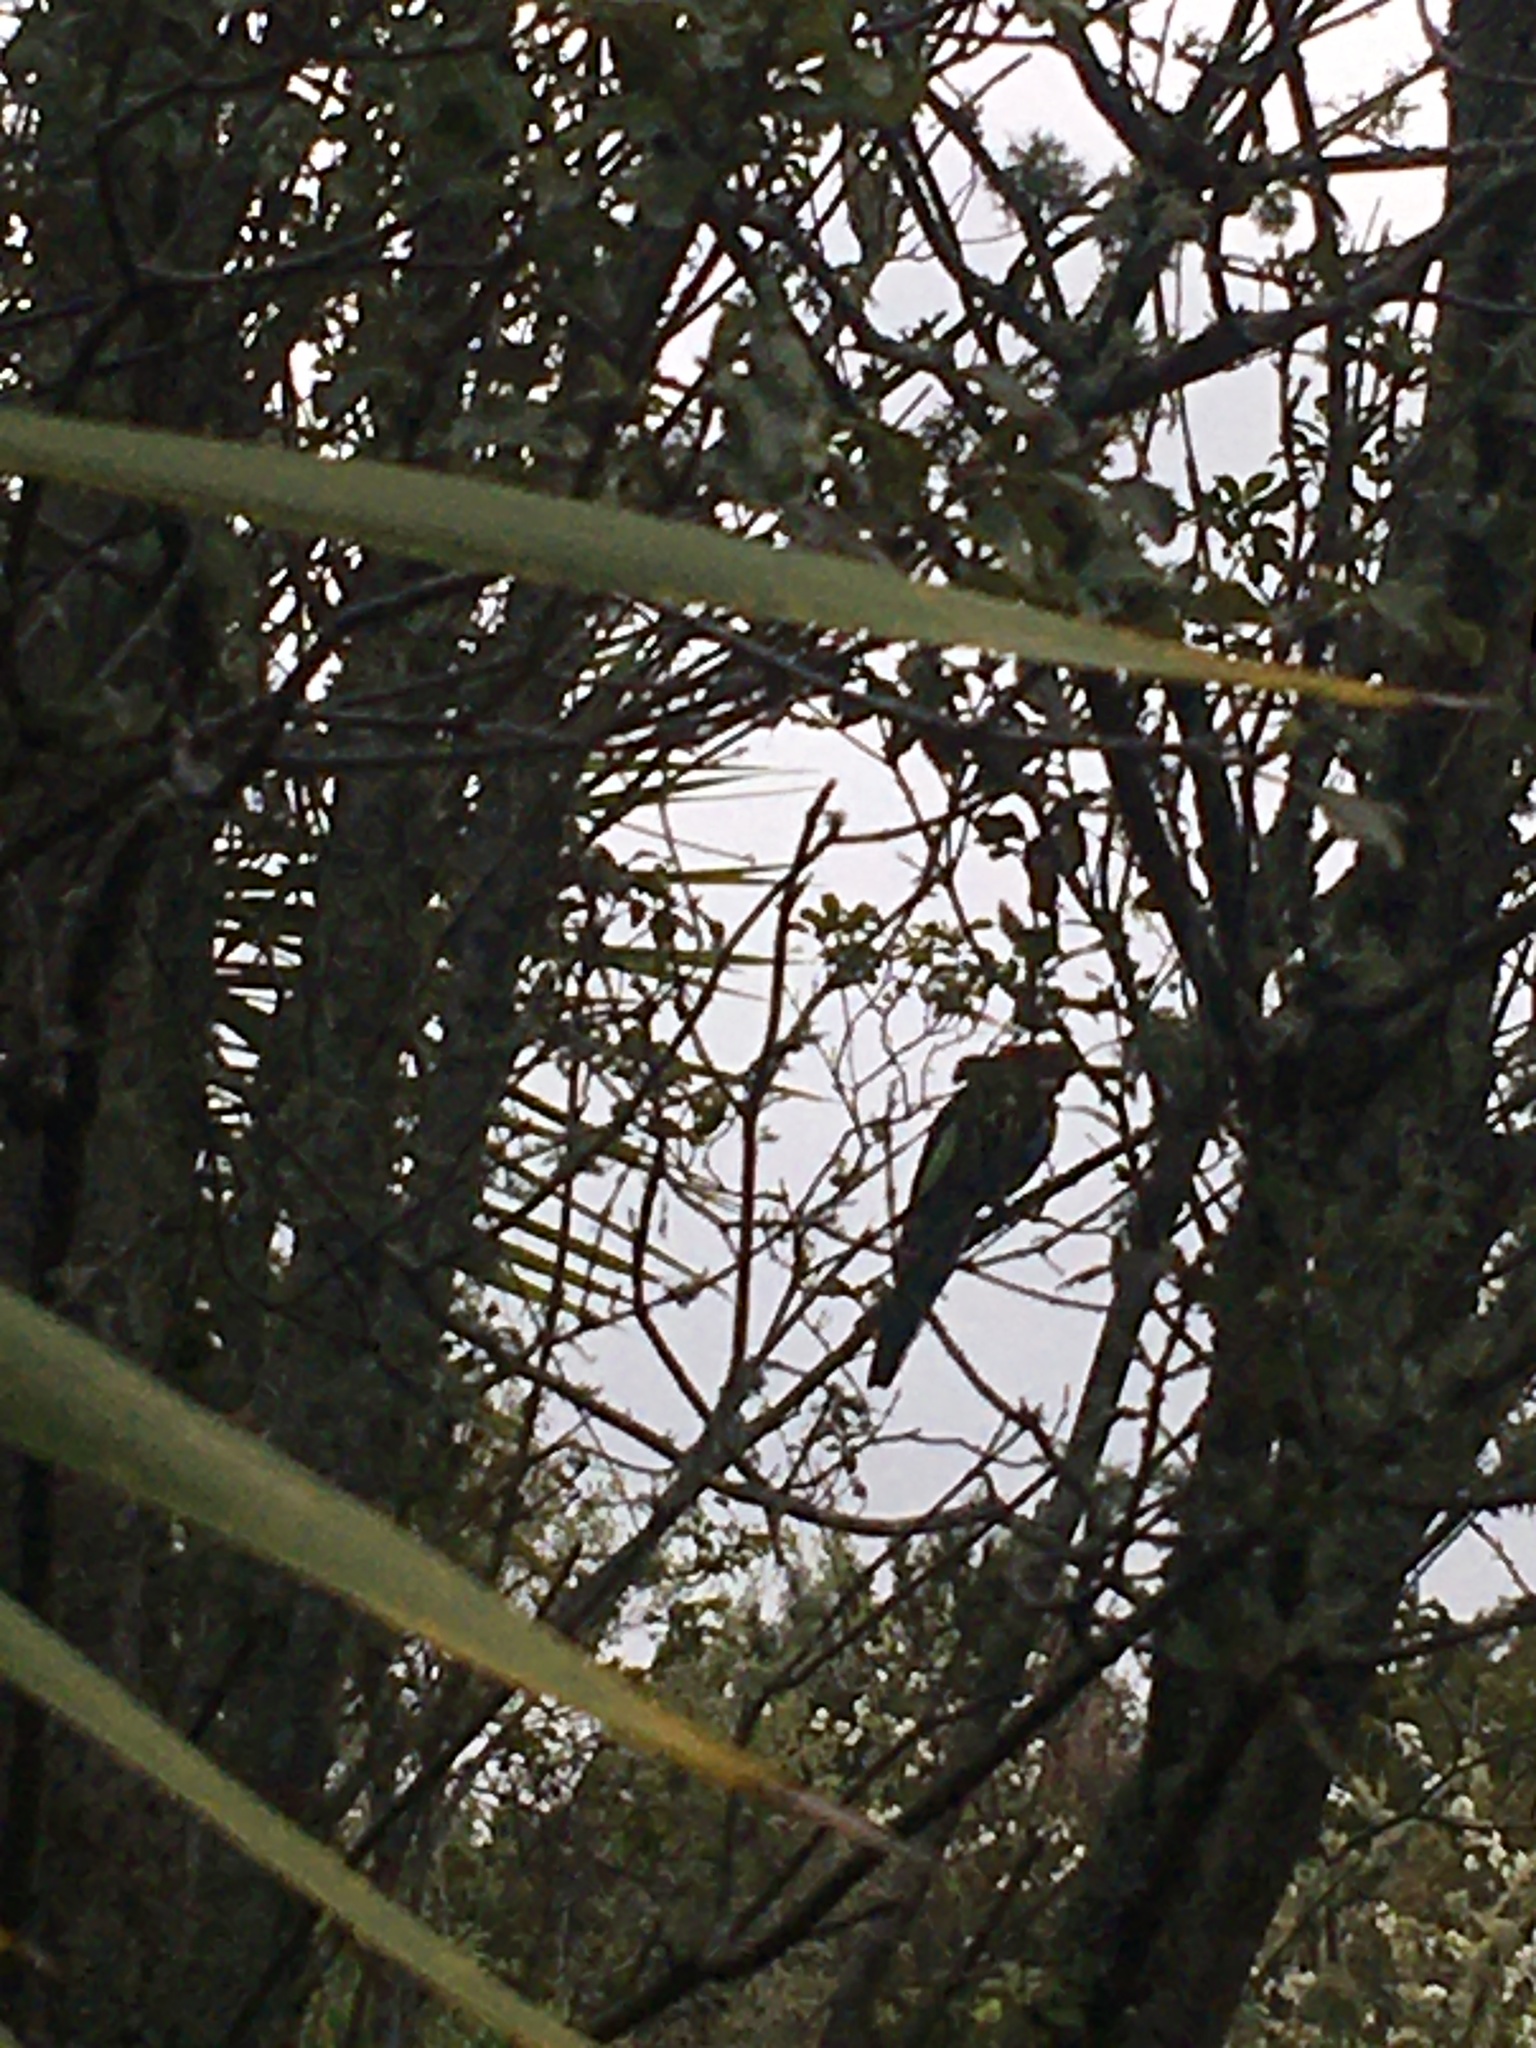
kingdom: Animalia
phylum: Chordata
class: Aves
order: Psittaciformes
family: Psittacidae
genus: Platycercus
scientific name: Platycercus eximius
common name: Eastern rosella
